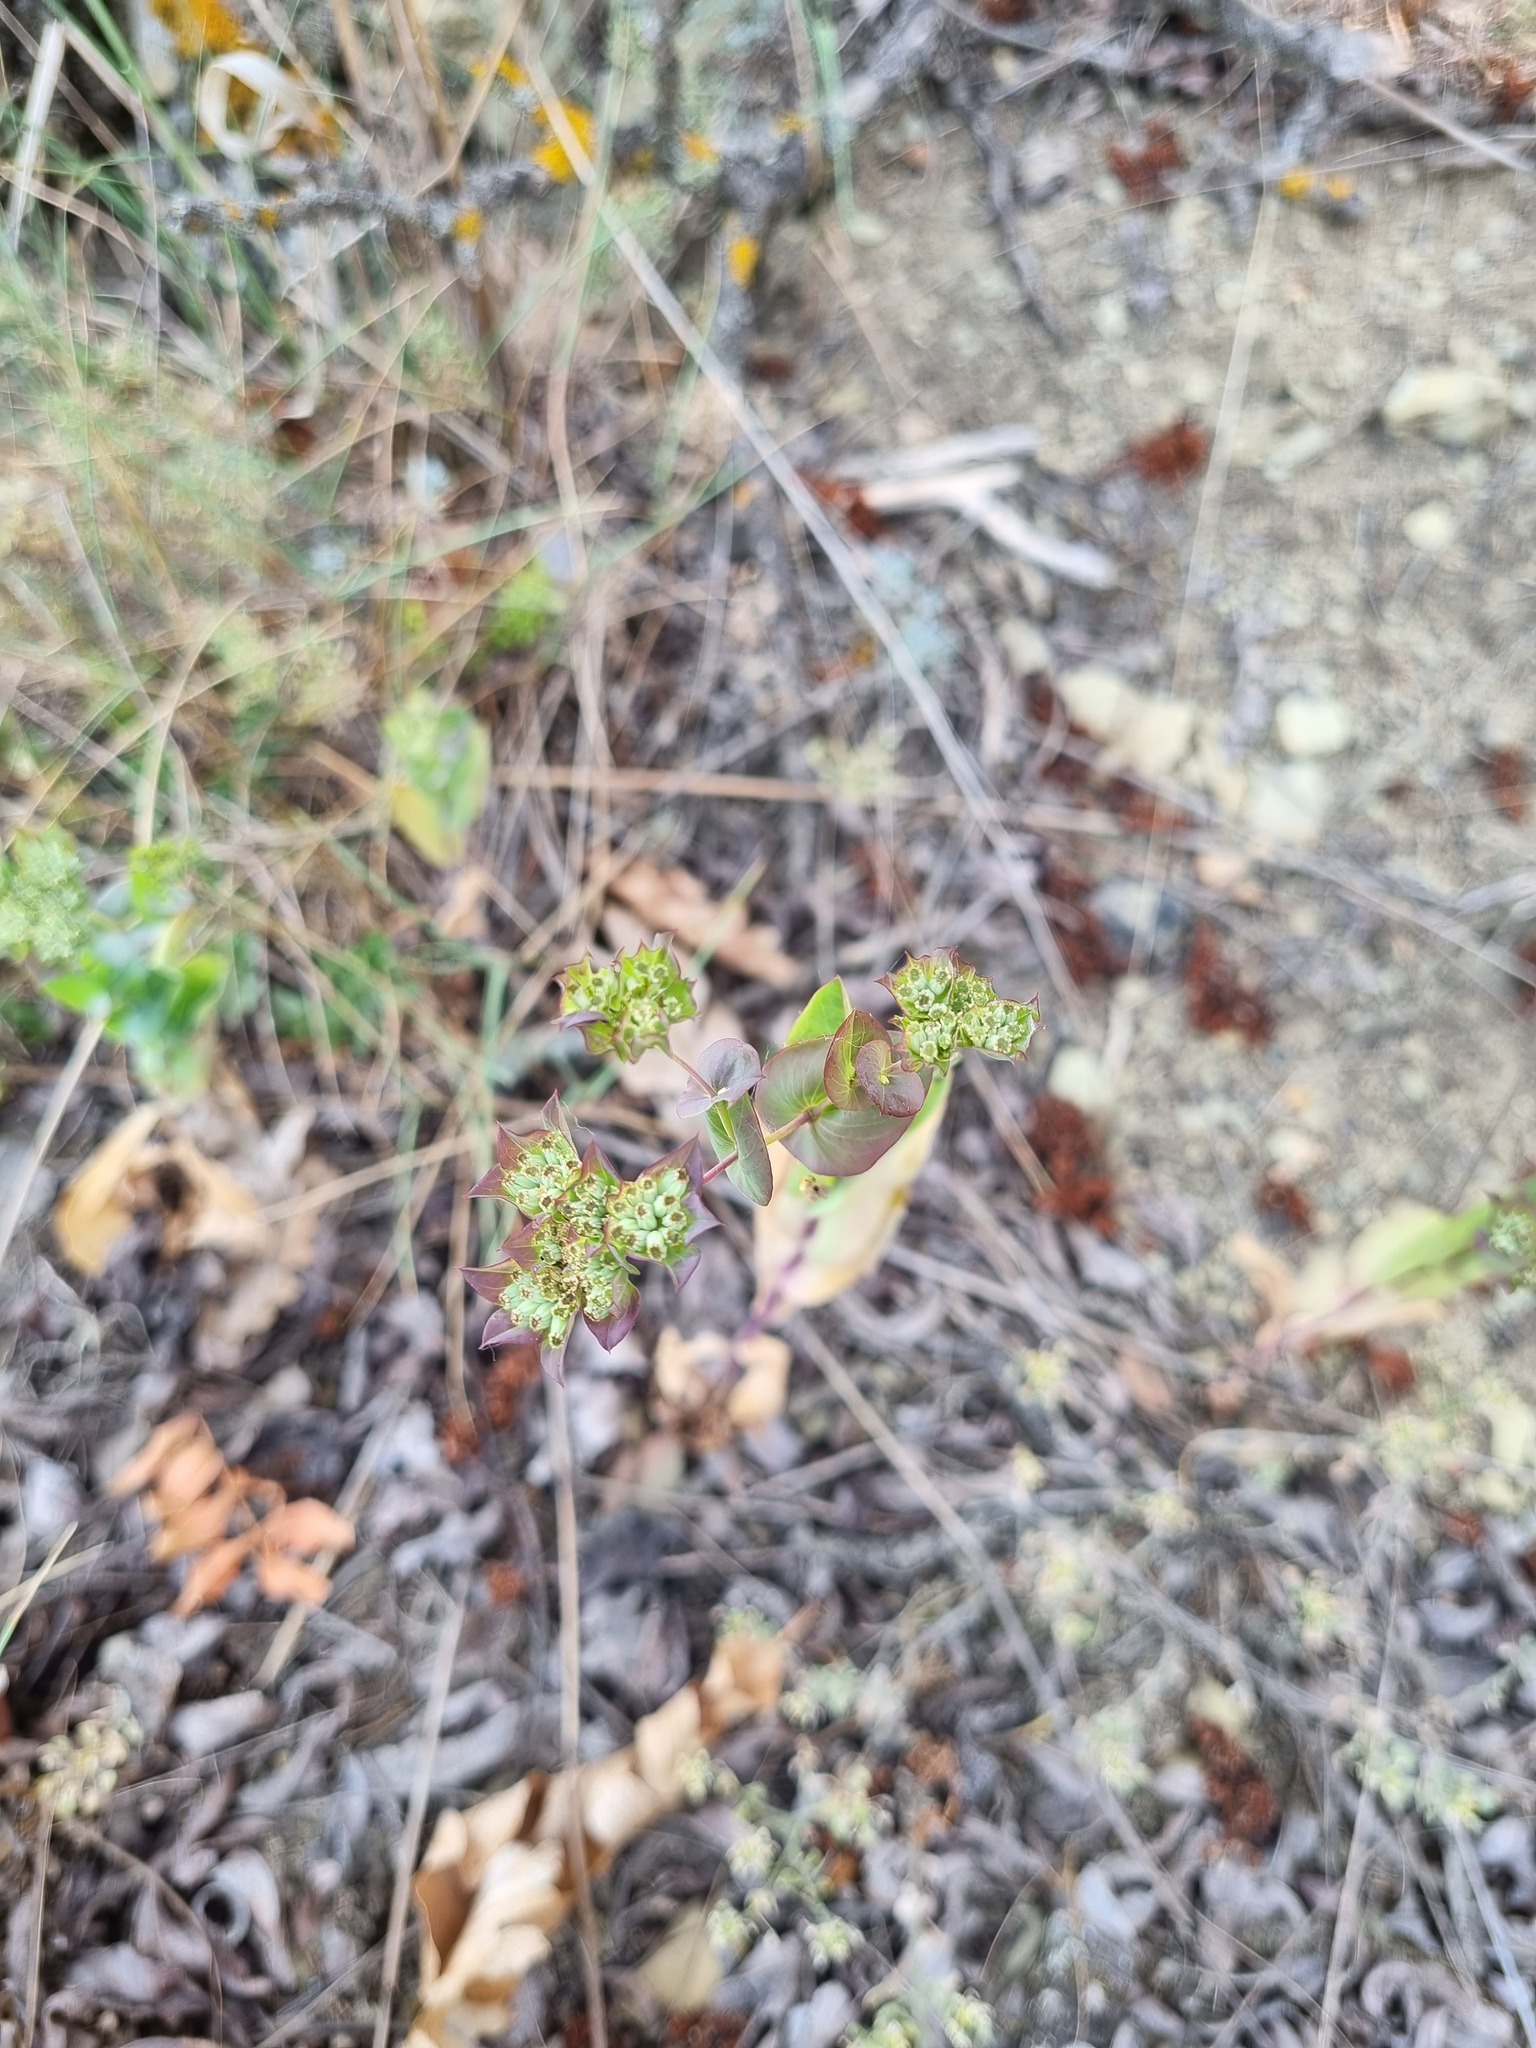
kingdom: Plantae
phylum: Tracheophyta
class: Magnoliopsida
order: Apiales
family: Apiaceae
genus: Bupleurum
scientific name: Bupleurum rotundifolium
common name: Thorow-wax
